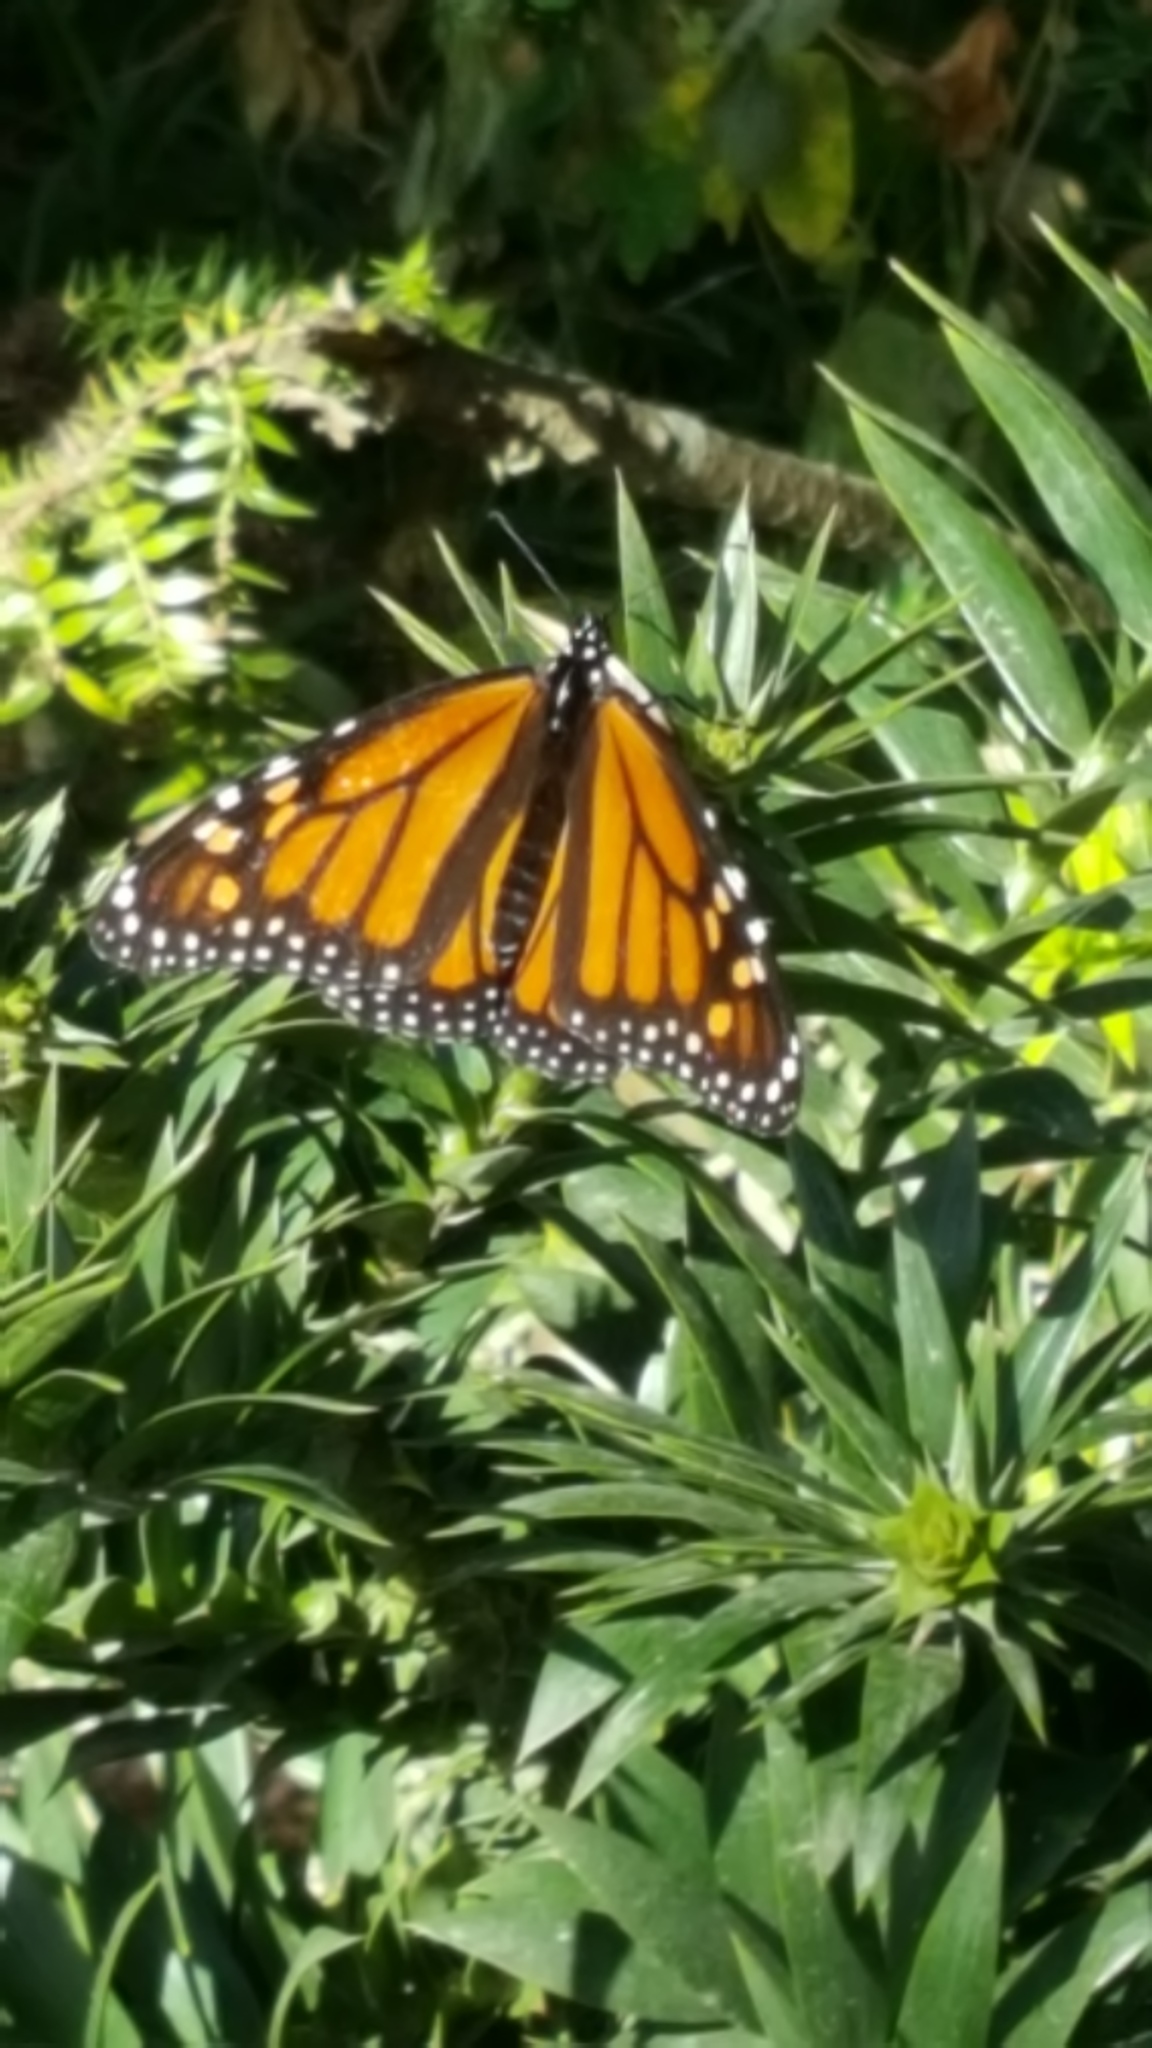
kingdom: Animalia
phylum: Arthropoda
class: Insecta
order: Lepidoptera
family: Nymphalidae
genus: Danaus
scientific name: Danaus plexippus
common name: Monarch
